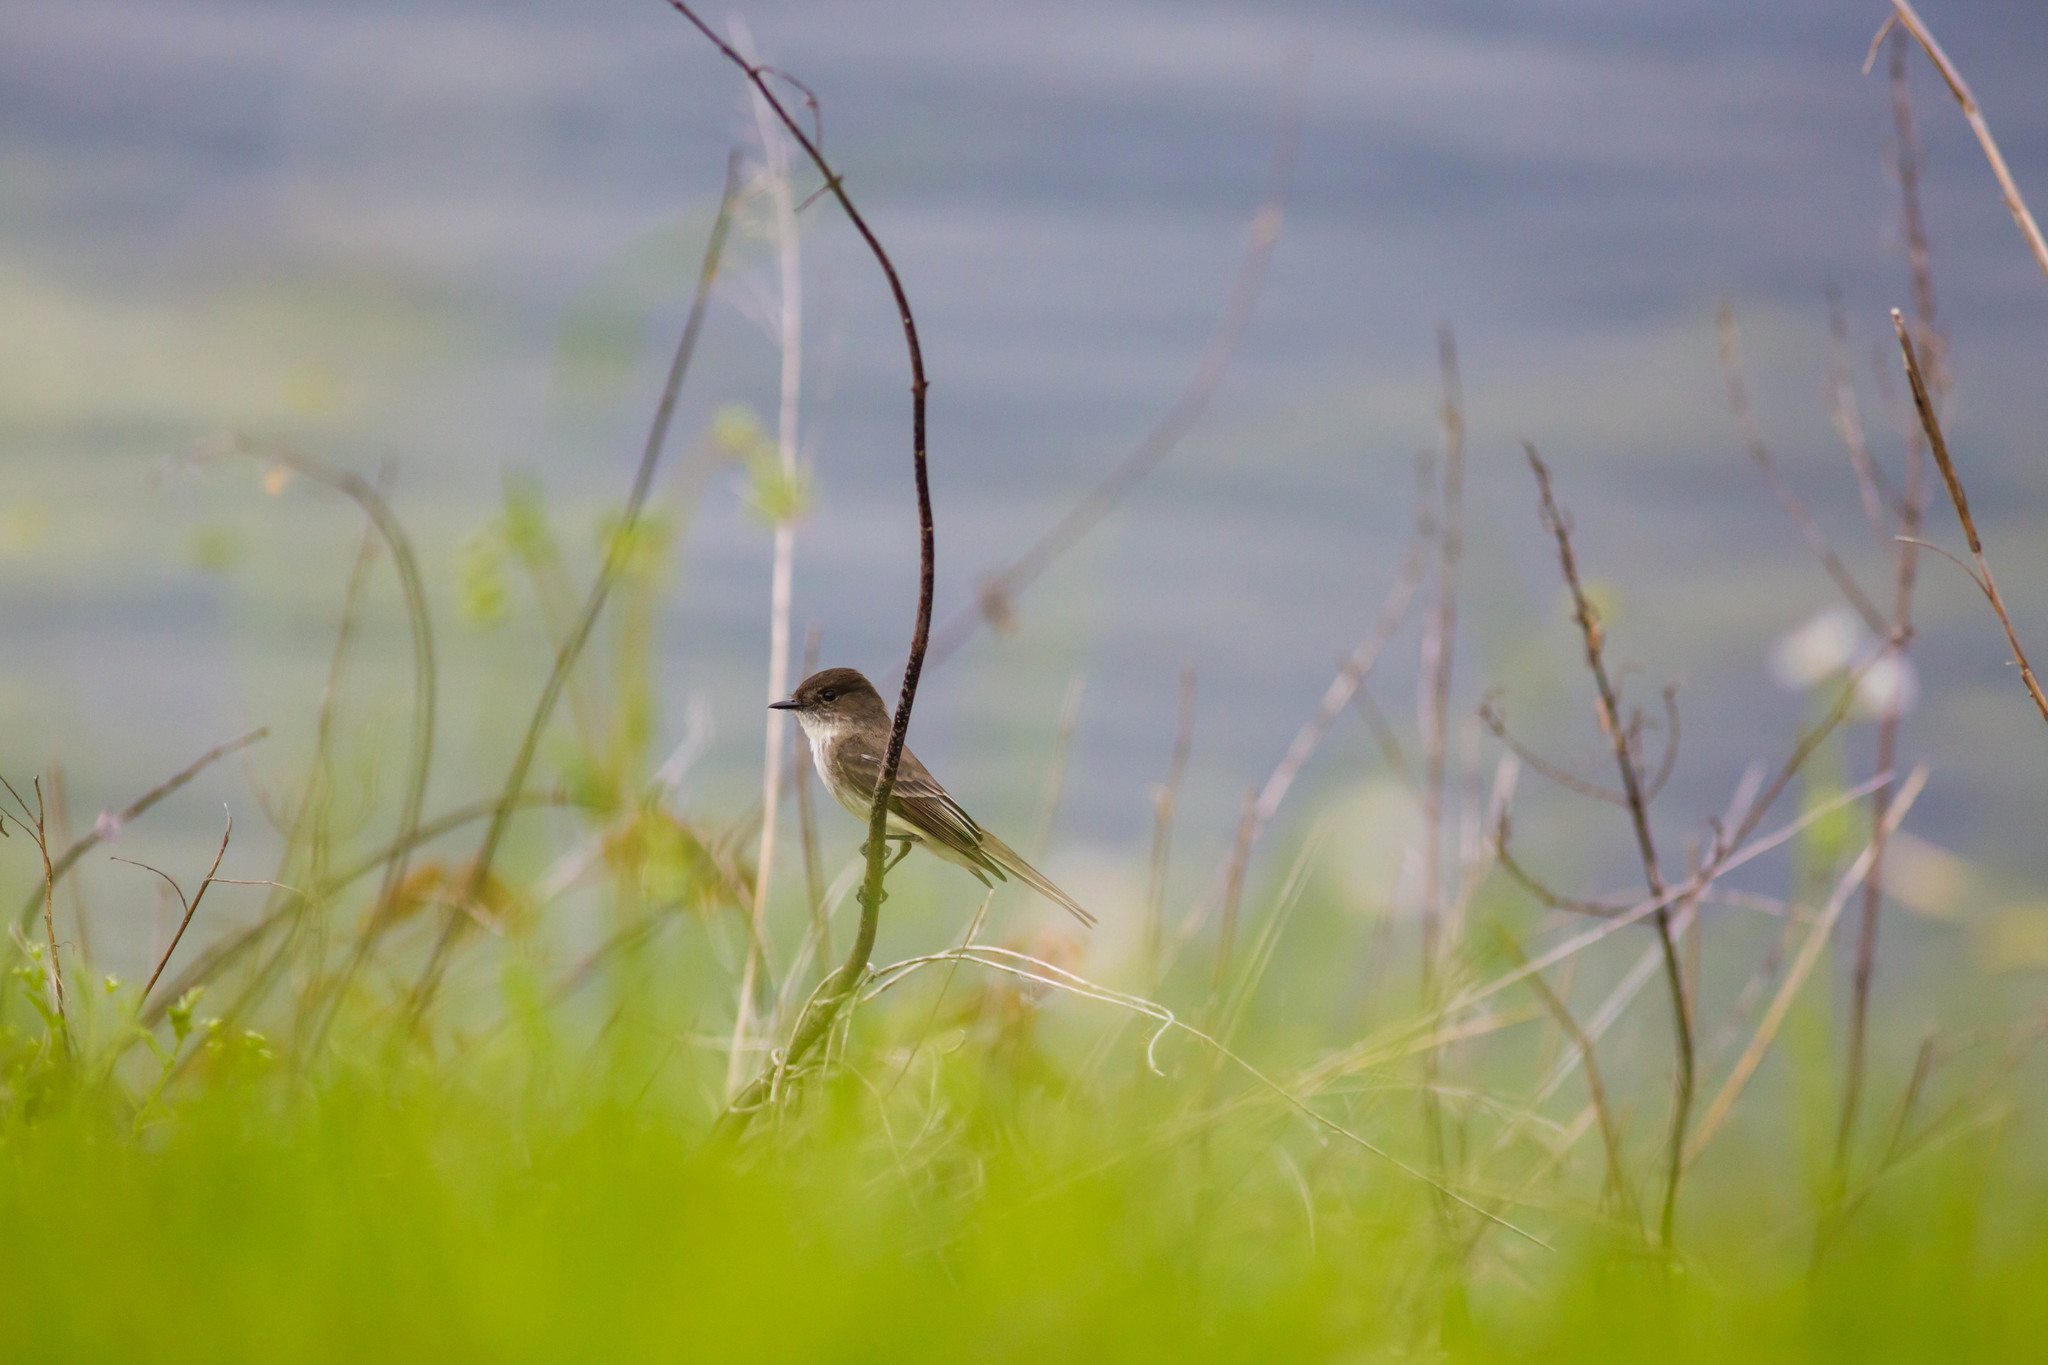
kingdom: Animalia
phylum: Chordata
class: Aves
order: Passeriformes
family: Tyrannidae
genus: Sayornis
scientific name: Sayornis phoebe
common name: Eastern phoebe
